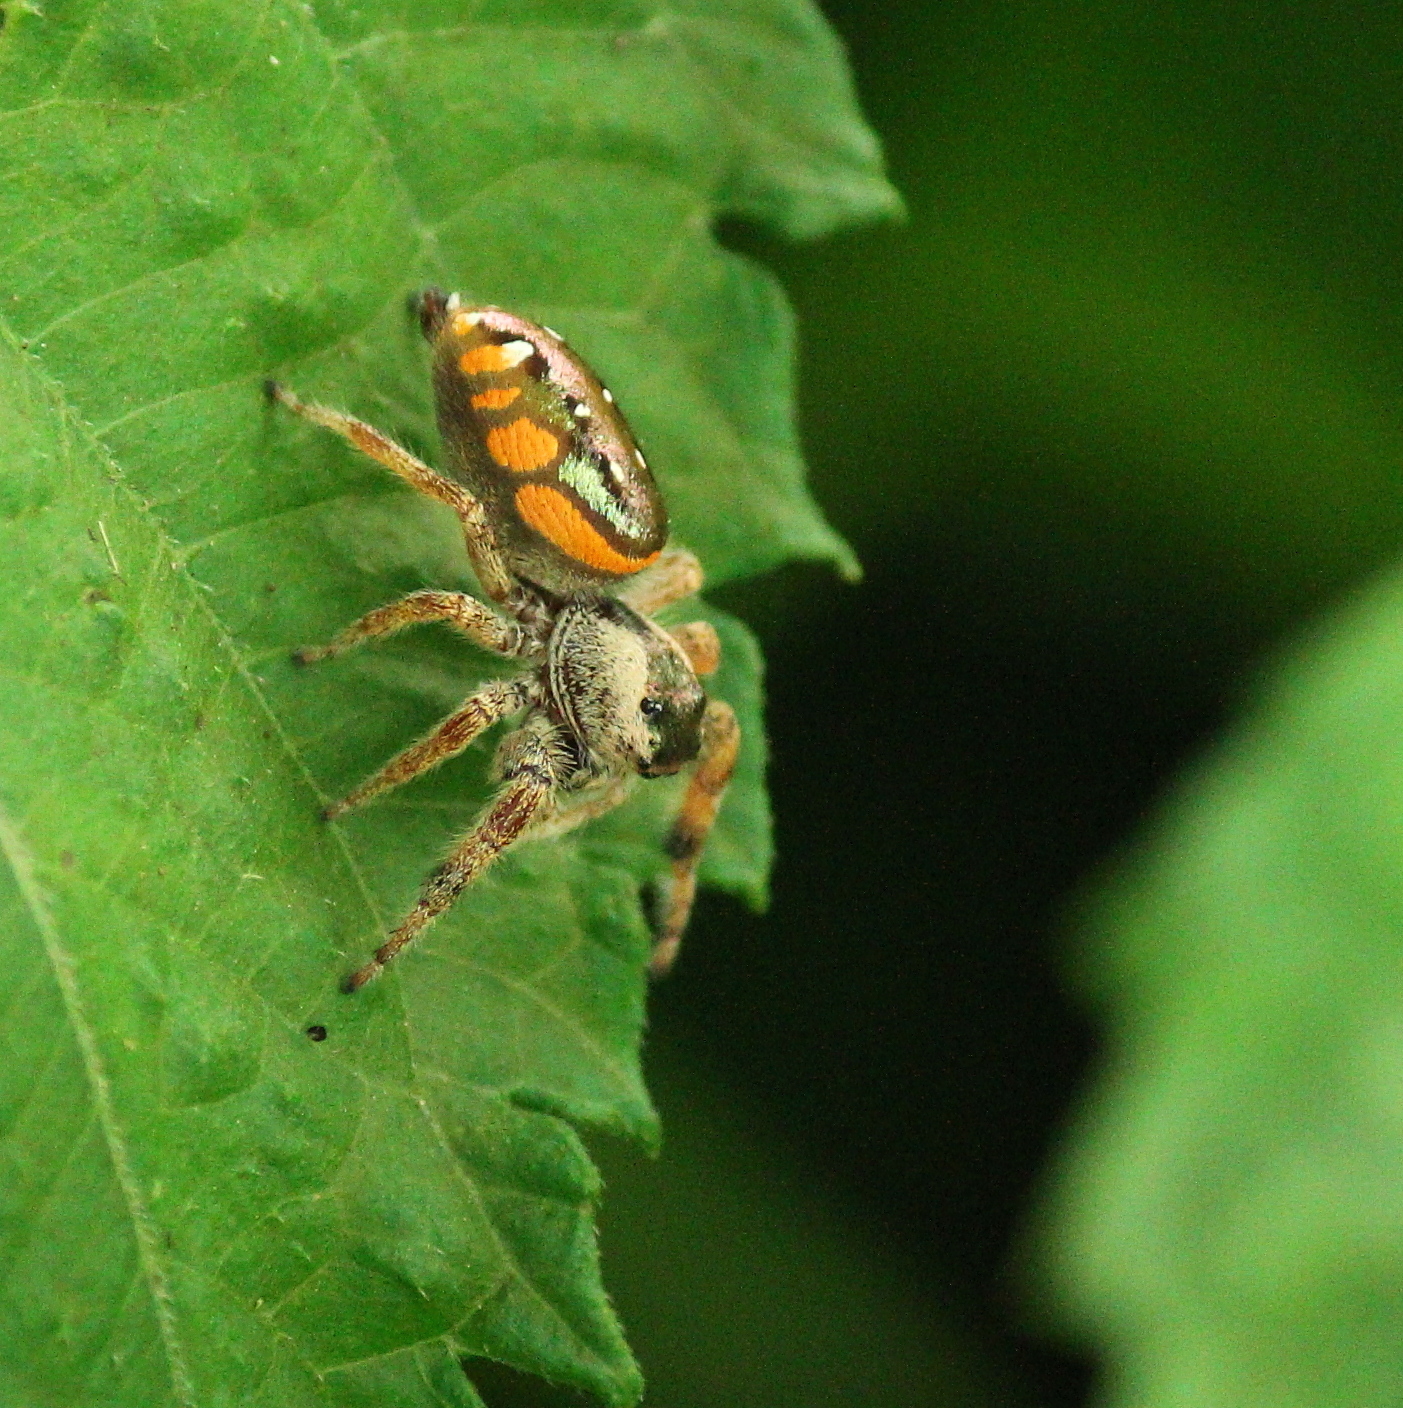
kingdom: Animalia
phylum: Arthropoda
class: Arachnida
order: Araneae
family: Salticidae
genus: Paraphidippus
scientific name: Paraphidippus aurantius
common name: Jumping spiders
